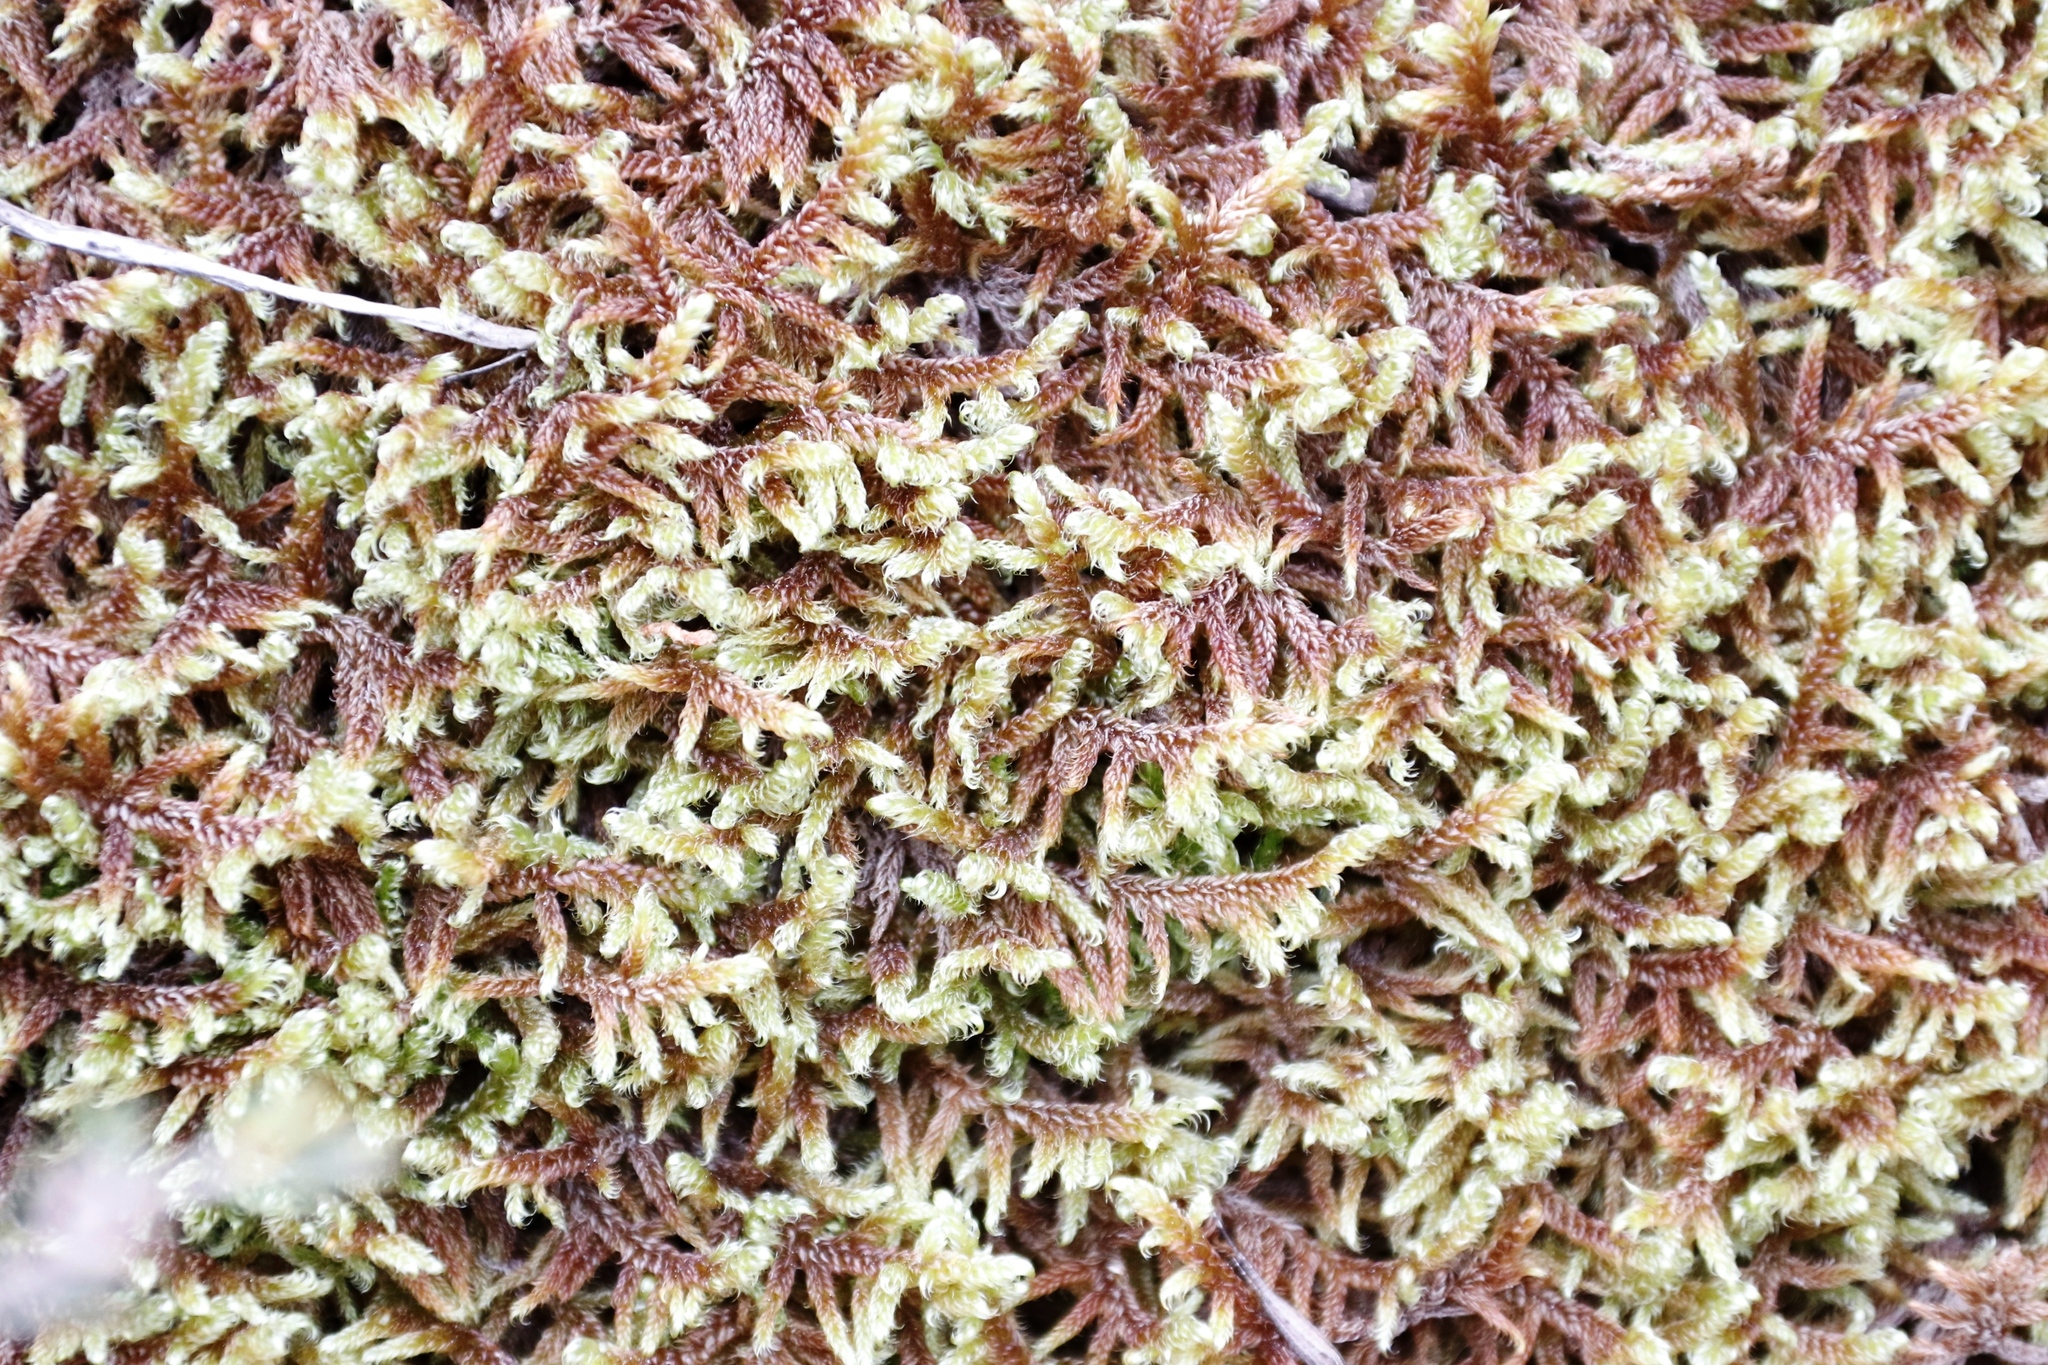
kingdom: Plantae
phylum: Bryophyta
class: Bryopsida
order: Hypnales
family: Hypnaceae
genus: Hypnum
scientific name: Hypnum cupressiforme
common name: Cypress-leaved plait-moss
